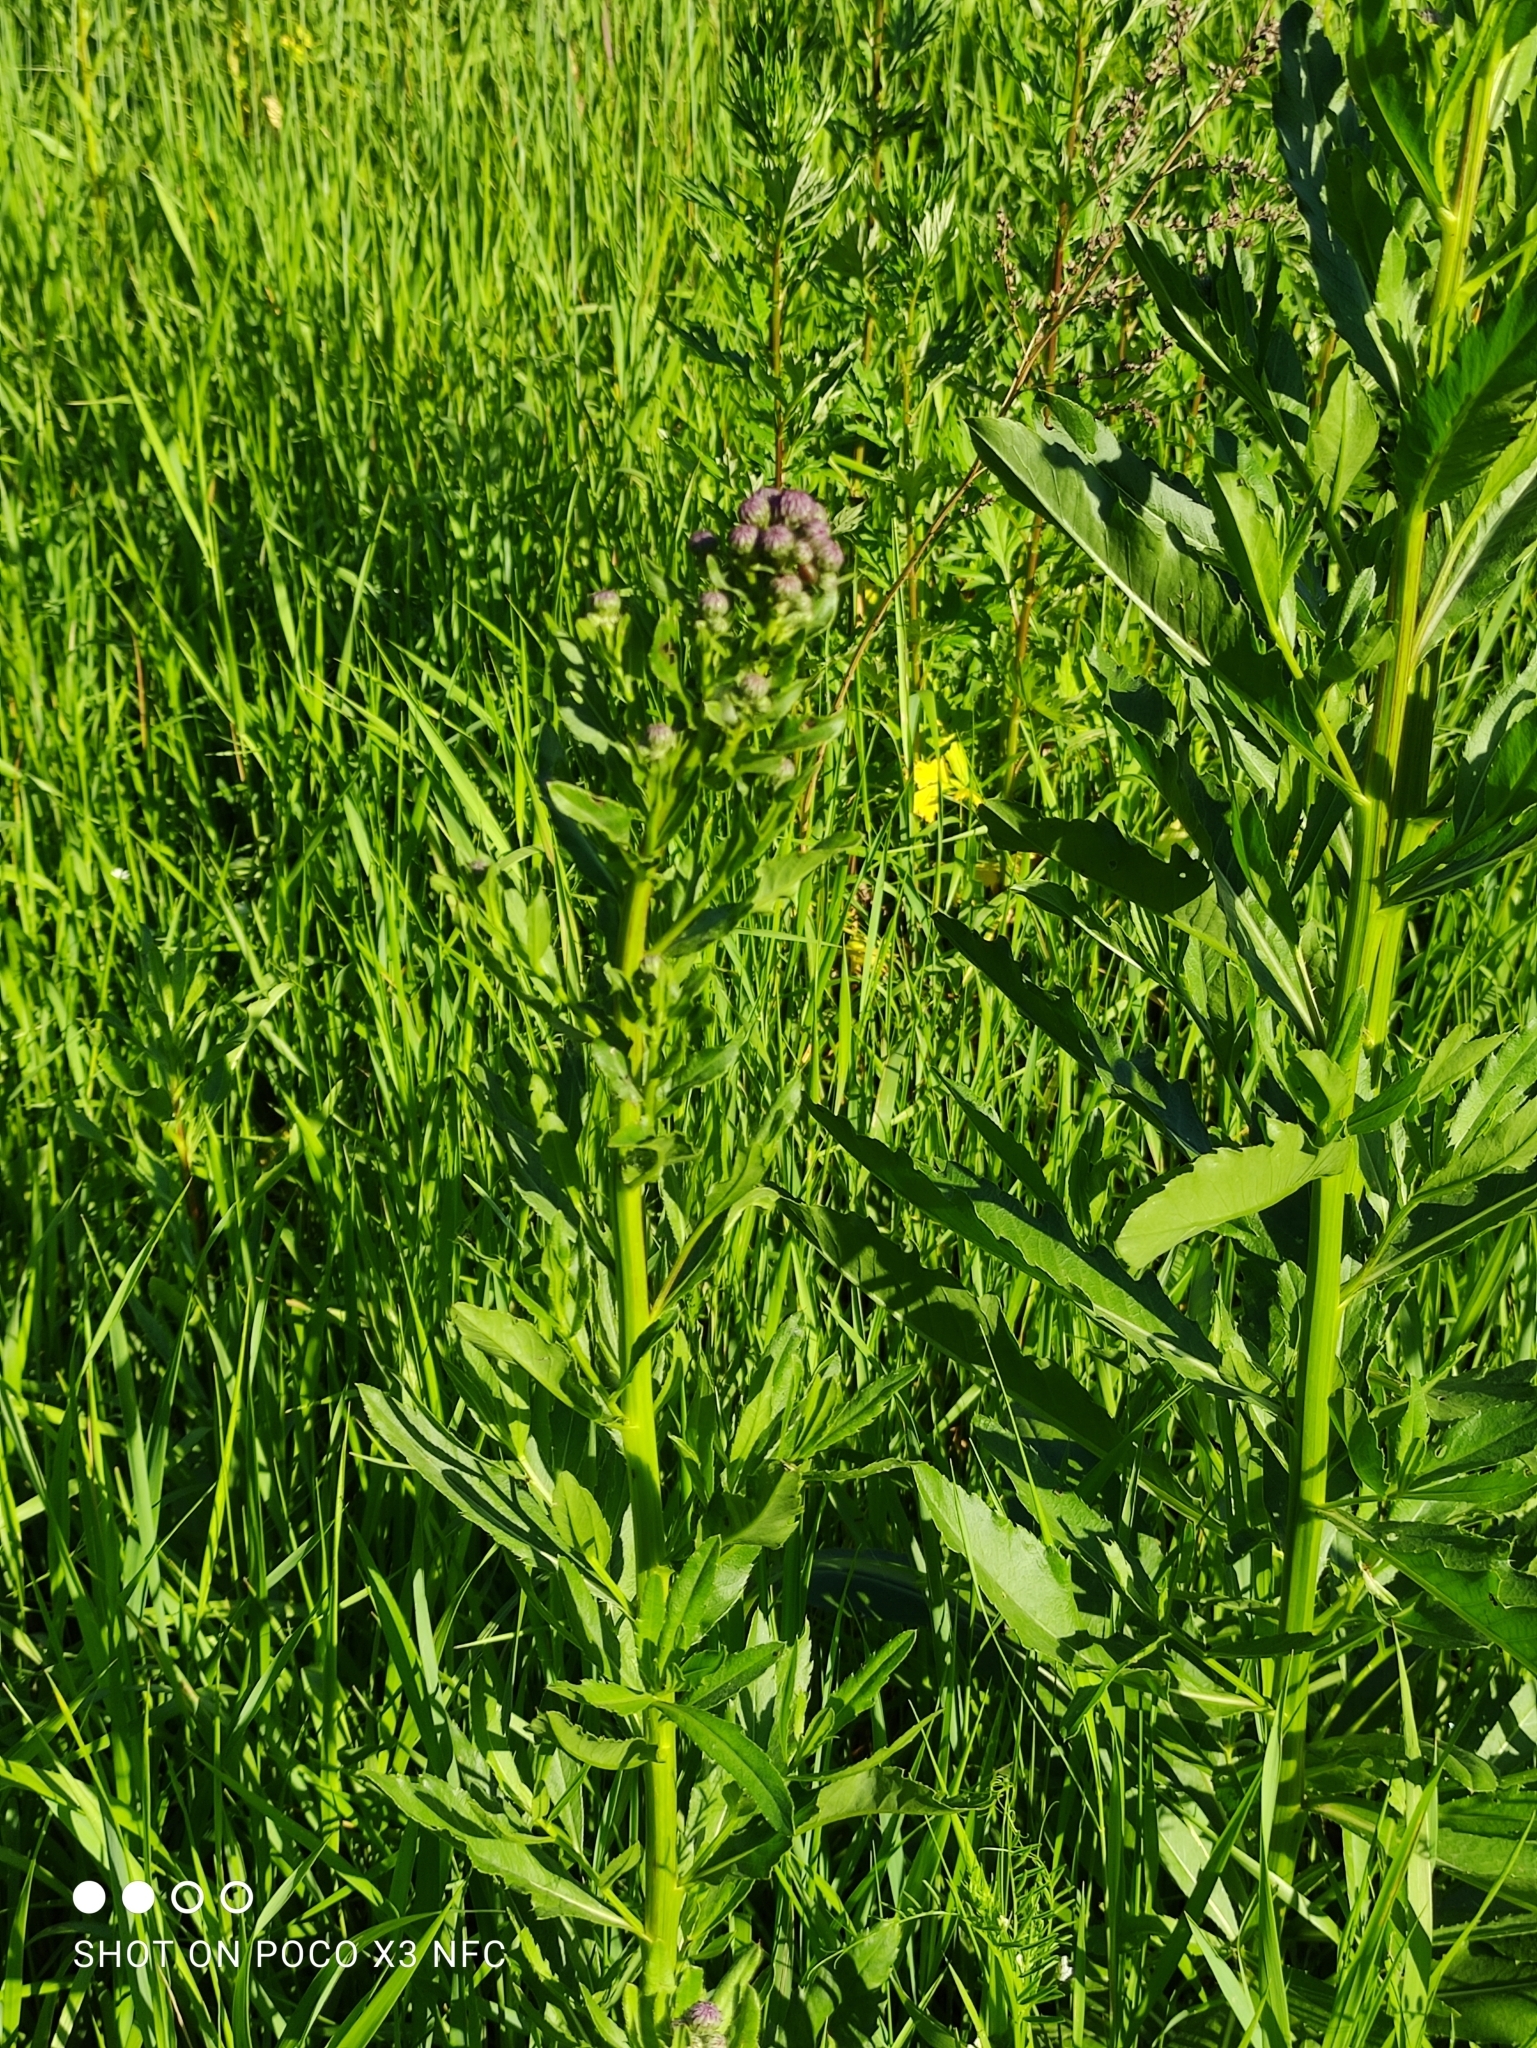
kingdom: Plantae
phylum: Tracheophyta
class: Magnoliopsida
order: Asterales
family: Asteraceae
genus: Cirsium
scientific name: Cirsium arvense
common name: Creeping thistle
